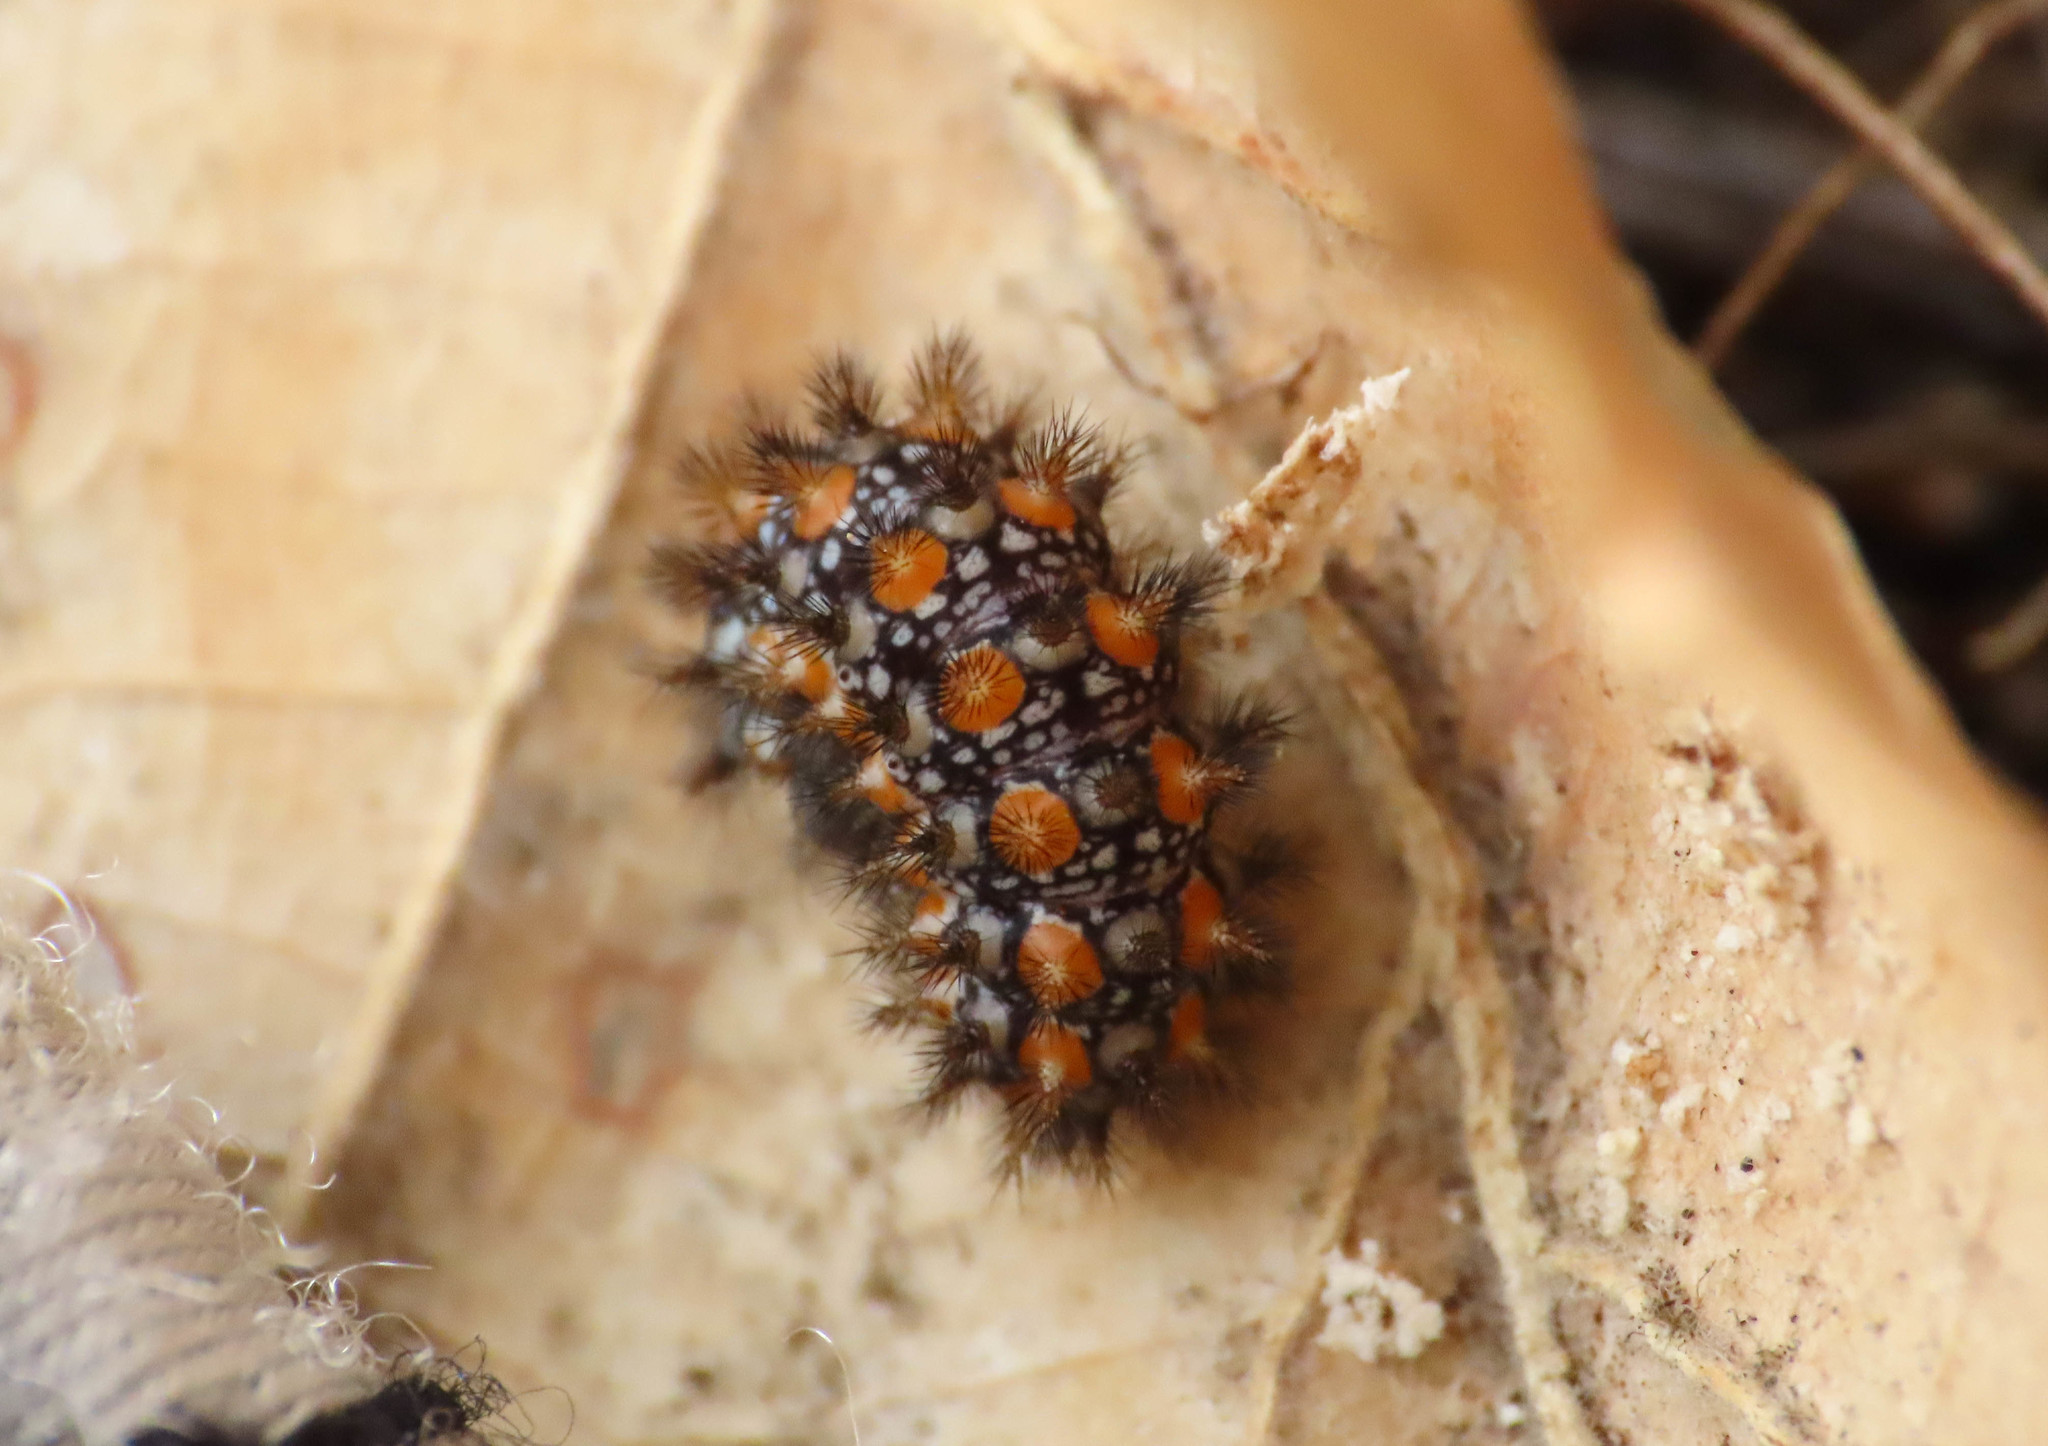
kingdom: Animalia
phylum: Arthropoda
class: Insecta
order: Lepidoptera
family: Nymphalidae
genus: Melitaea
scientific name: Melitaea didyma
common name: Spotted fritillary
